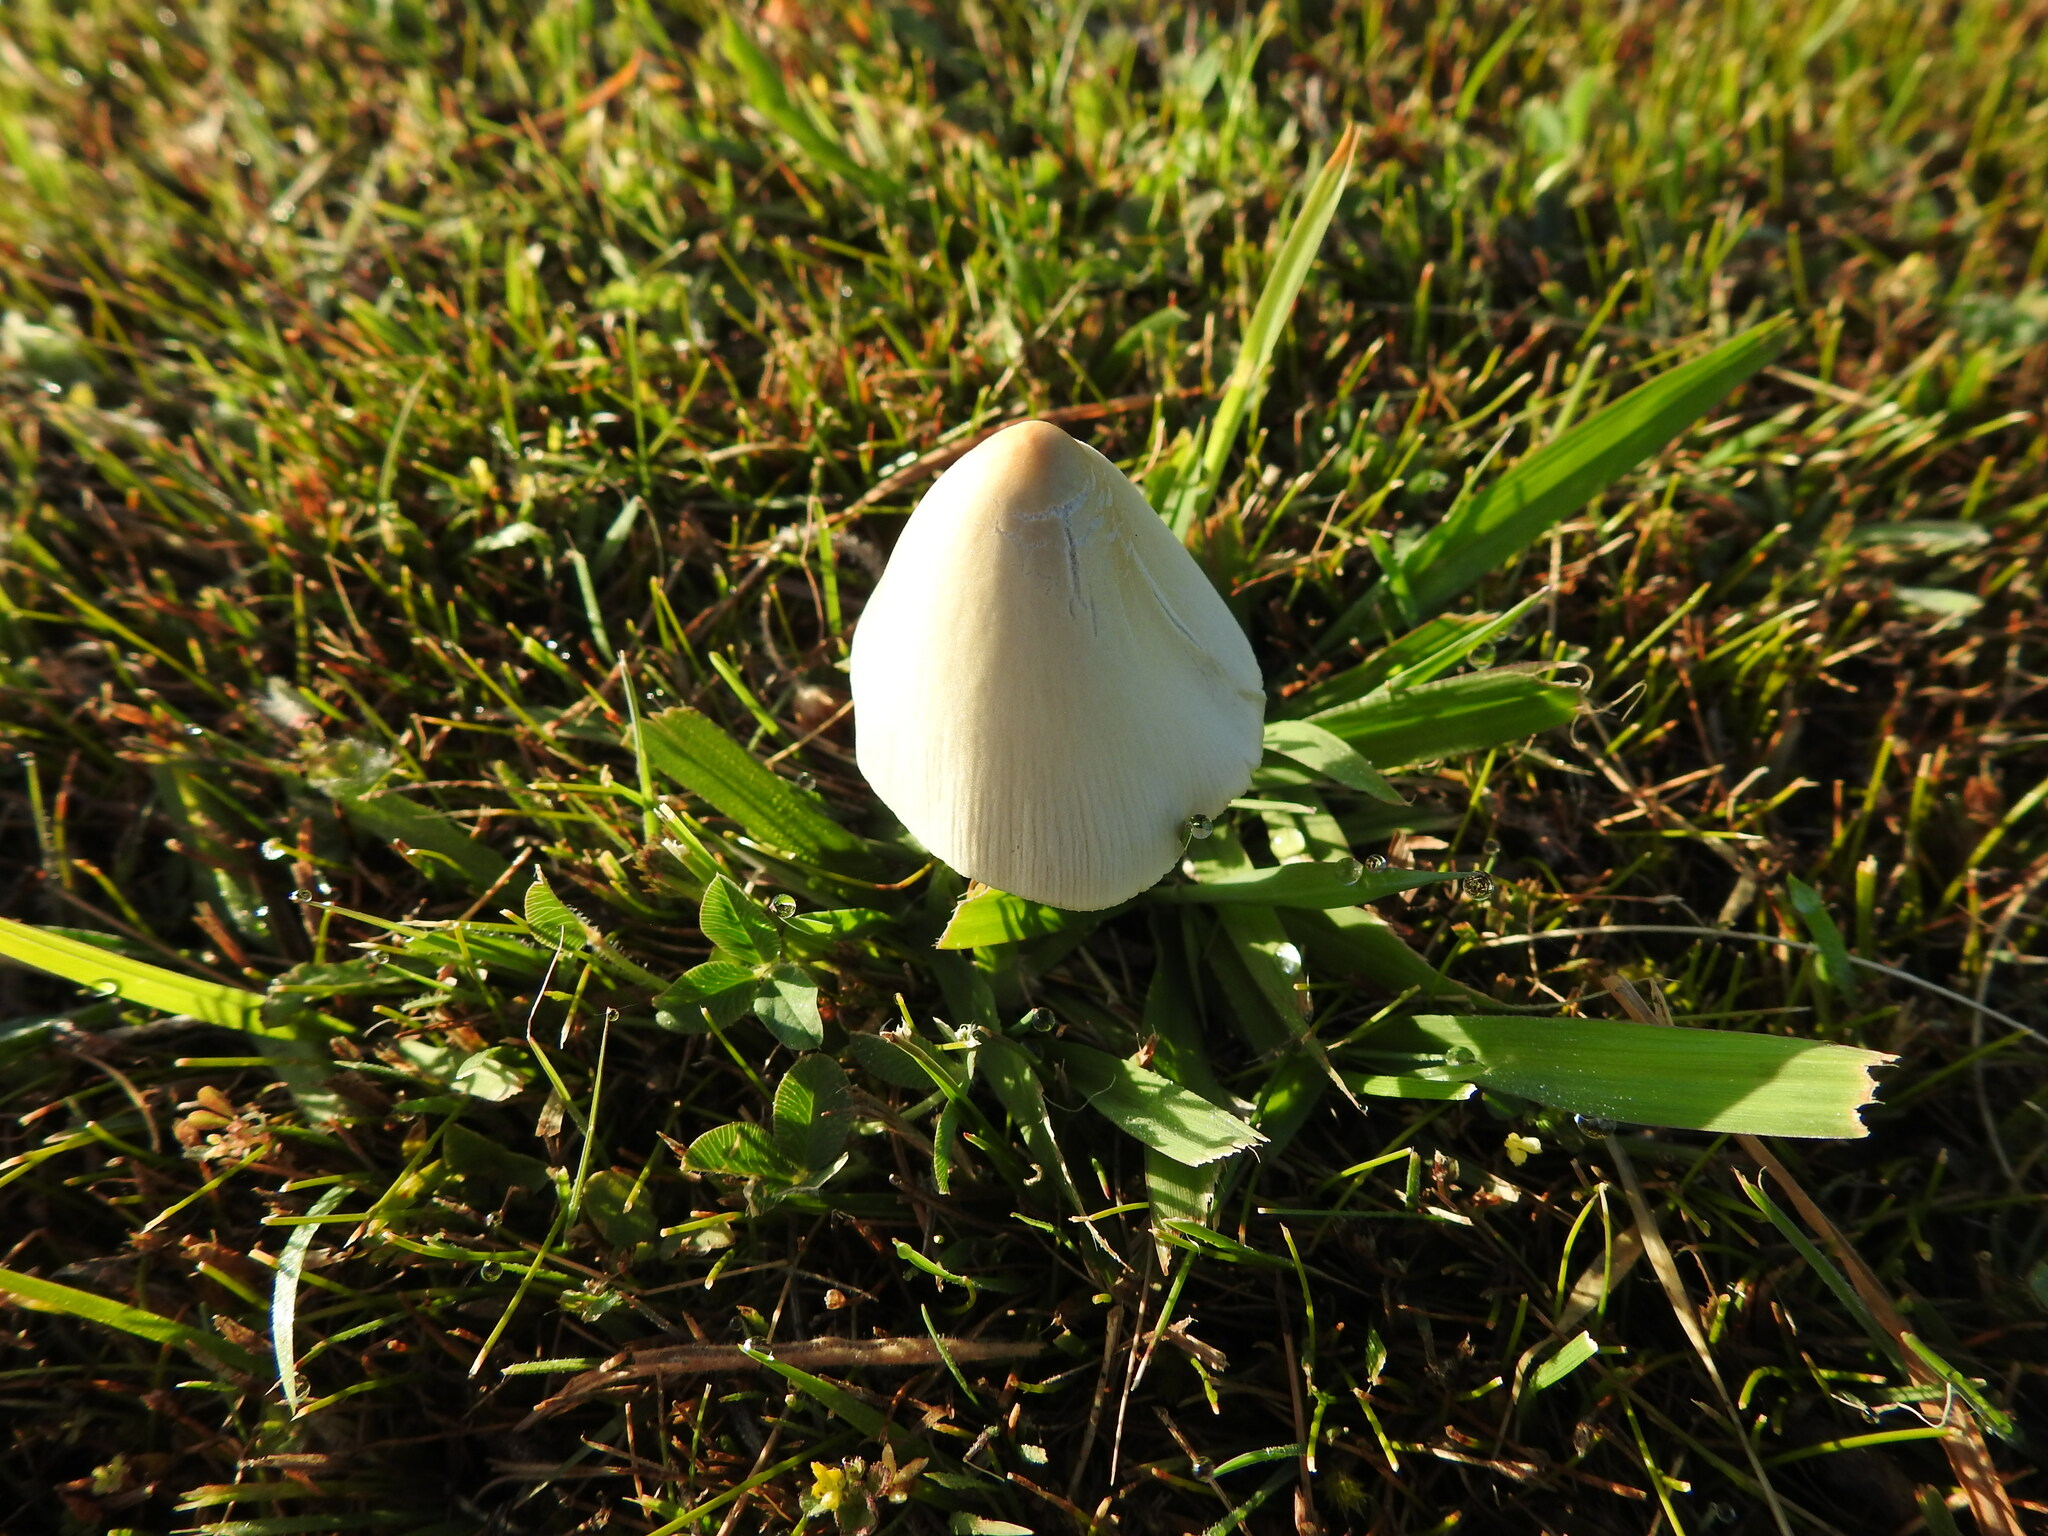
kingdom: Fungi
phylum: Basidiomycota
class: Agaricomycetes
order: Agaricales
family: Bolbitiaceae
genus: Conocybe
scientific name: Conocybe apala
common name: Milky conecap
